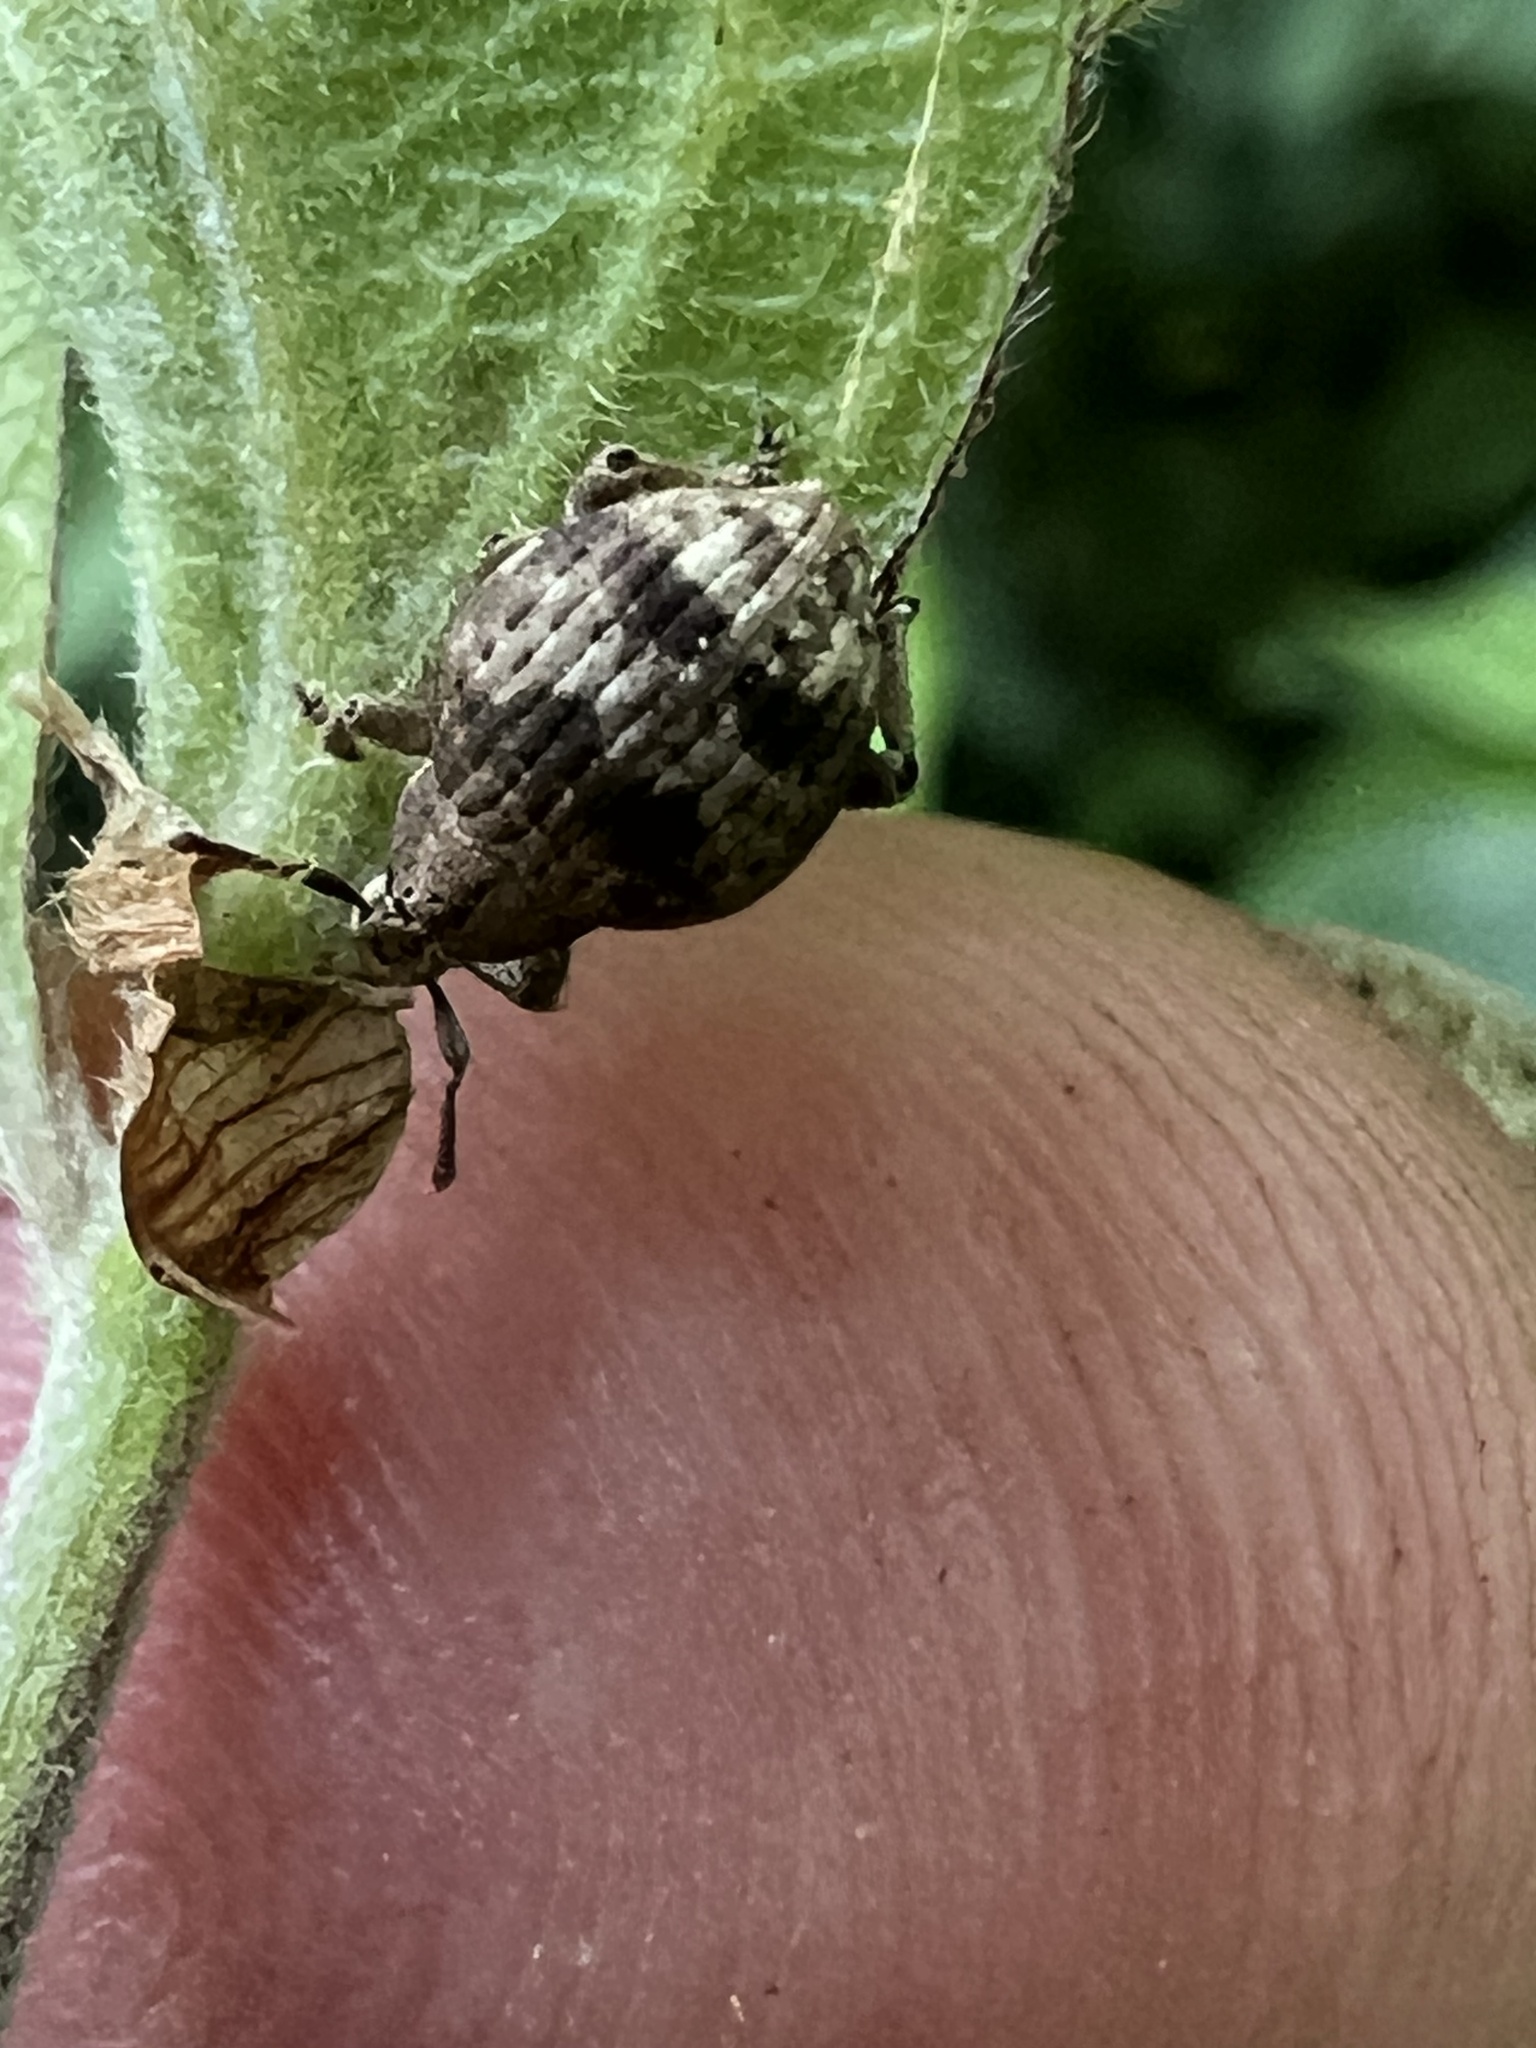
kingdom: Animalia
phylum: Arthropoda
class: Insecta
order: Coleoptera
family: Curculionidae
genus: Pseudocneorhinus
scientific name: Pseudocneorhinus bifasciatus
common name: Two-banded japanese weevil
